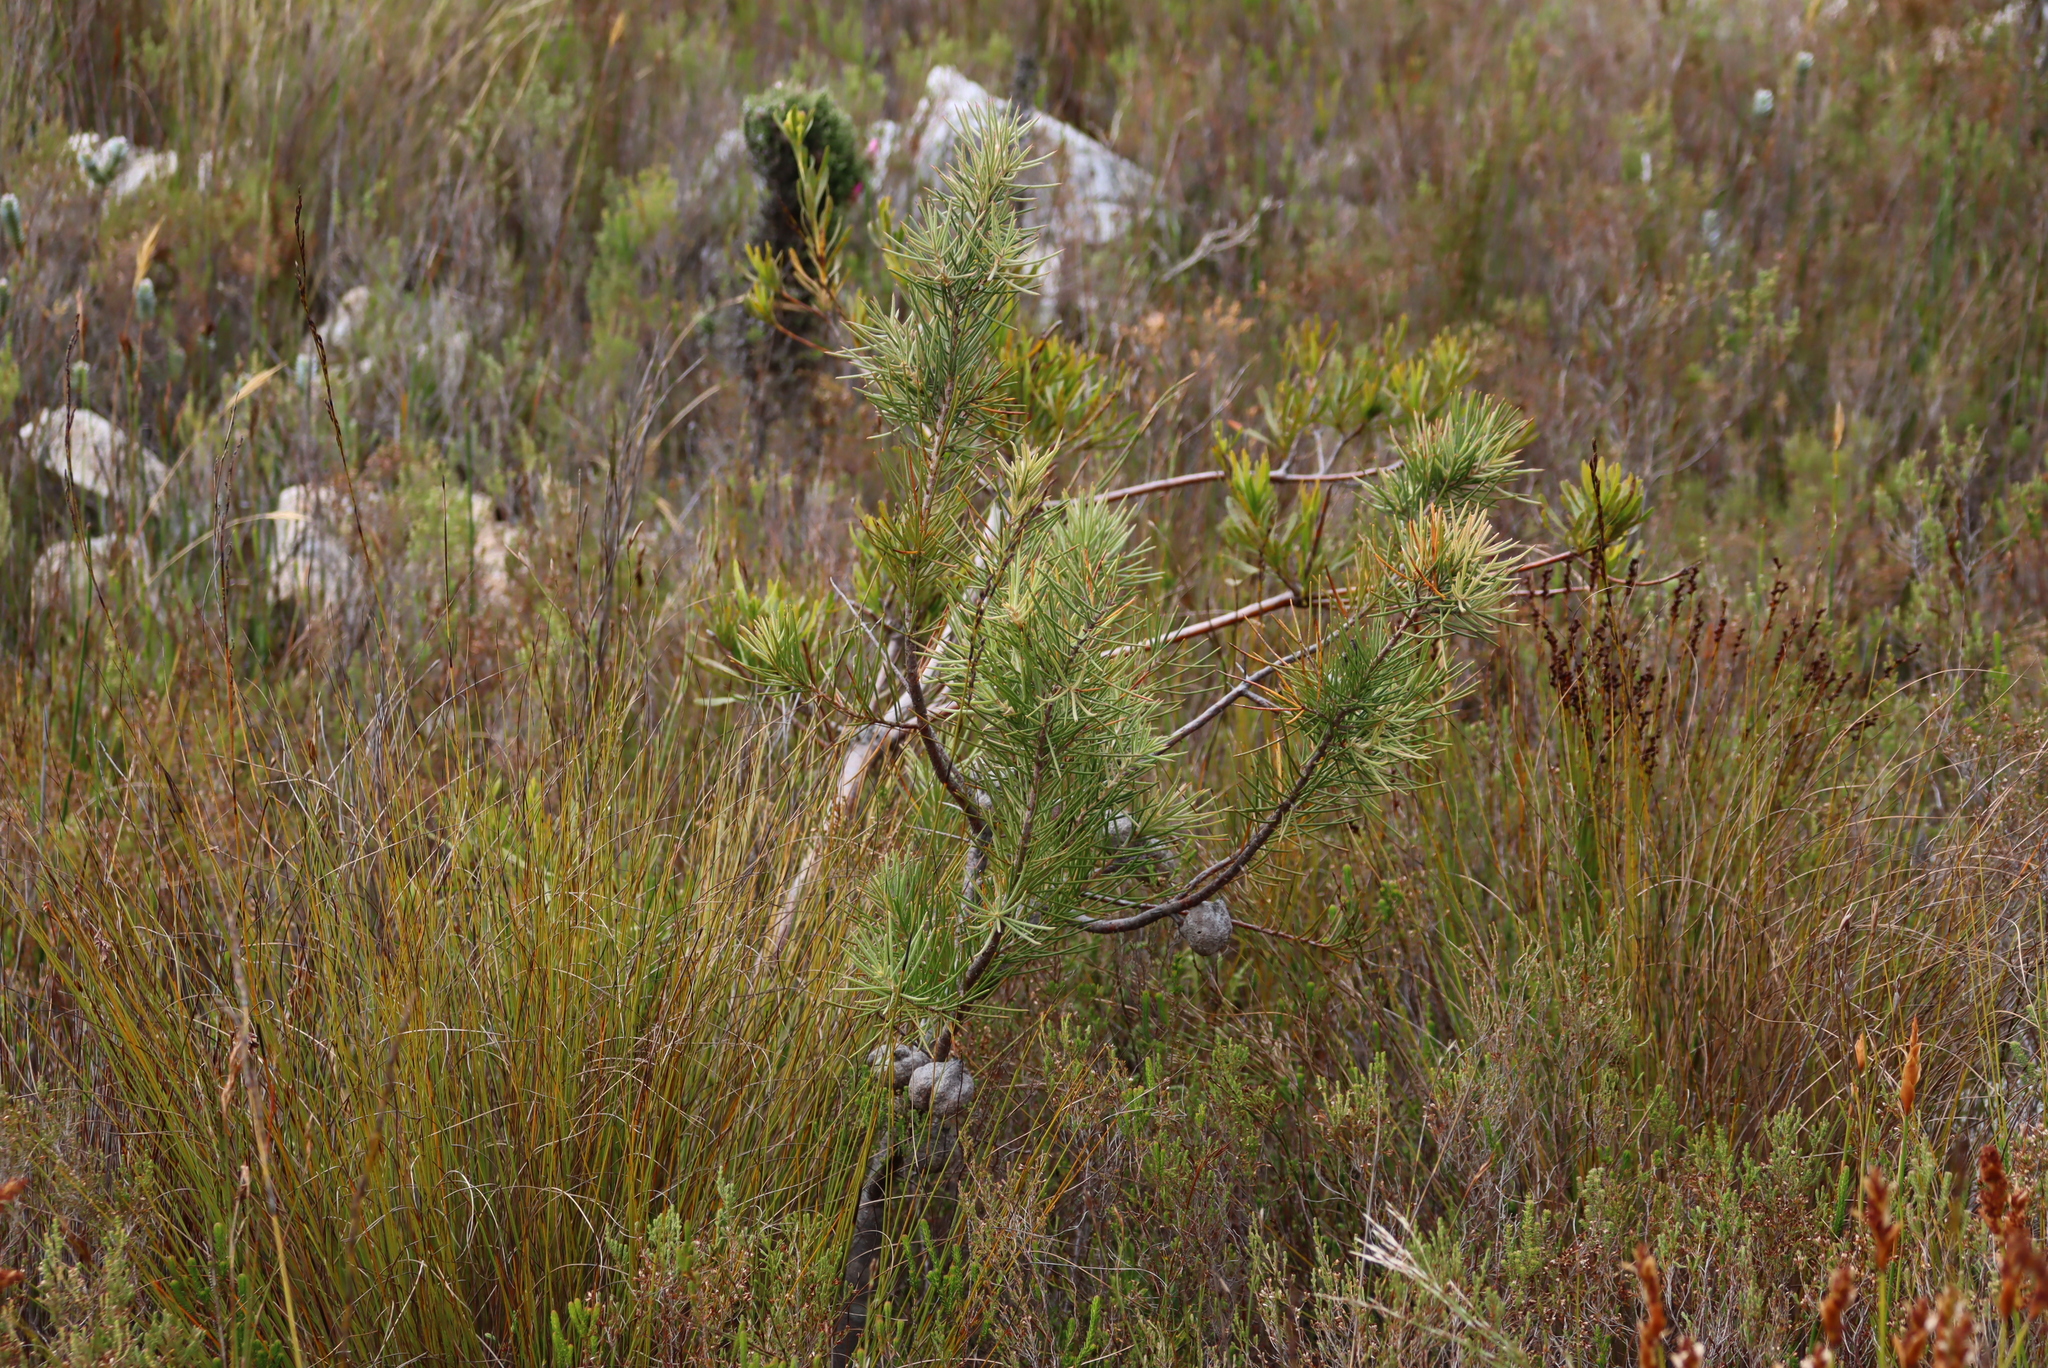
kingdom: Plantae
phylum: Tracheophyta
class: Magnoliopsida
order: Proteales
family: Proteaceae
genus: Hakea
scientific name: Hakea gibbosa
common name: Rock hakea
